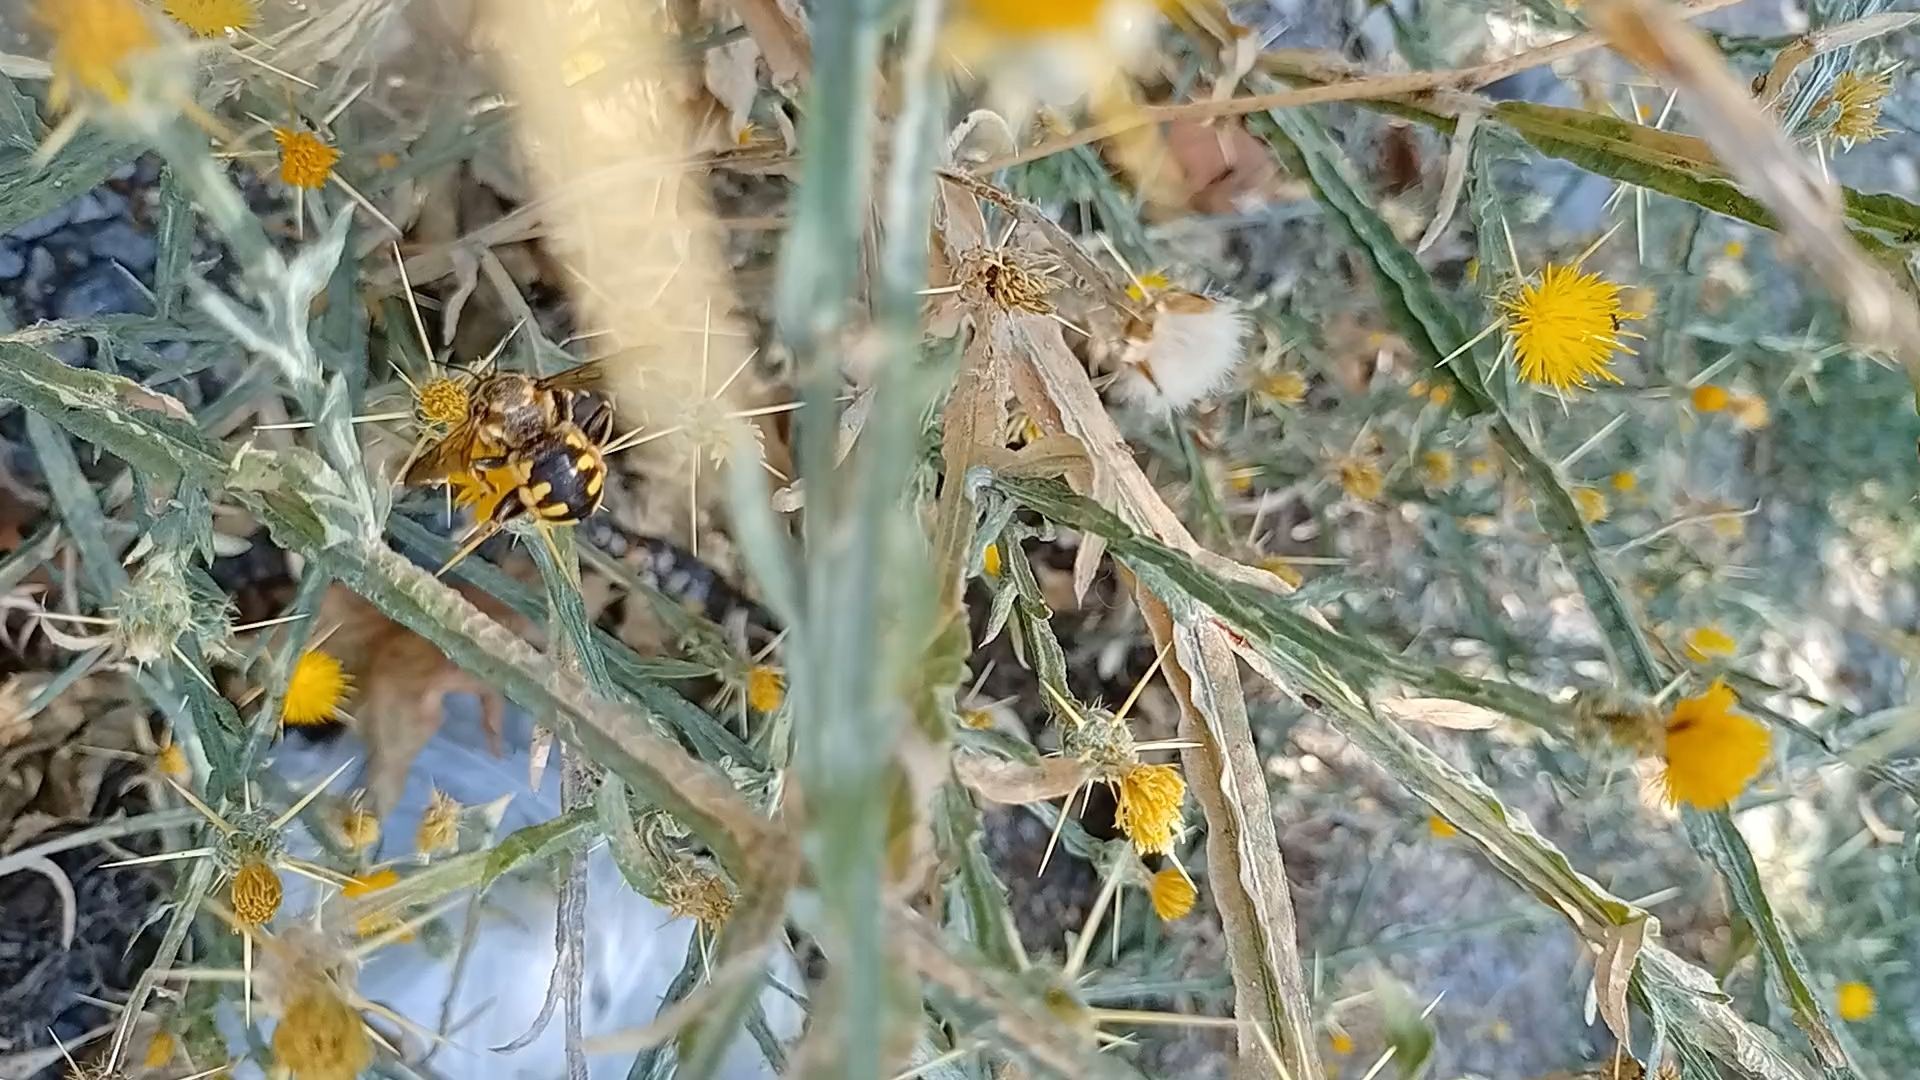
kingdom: Animalia
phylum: Arthropoda
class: Insecta
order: Hymenoptera
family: Megachilidae
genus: Anthidium
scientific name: Anthidium florentinum
